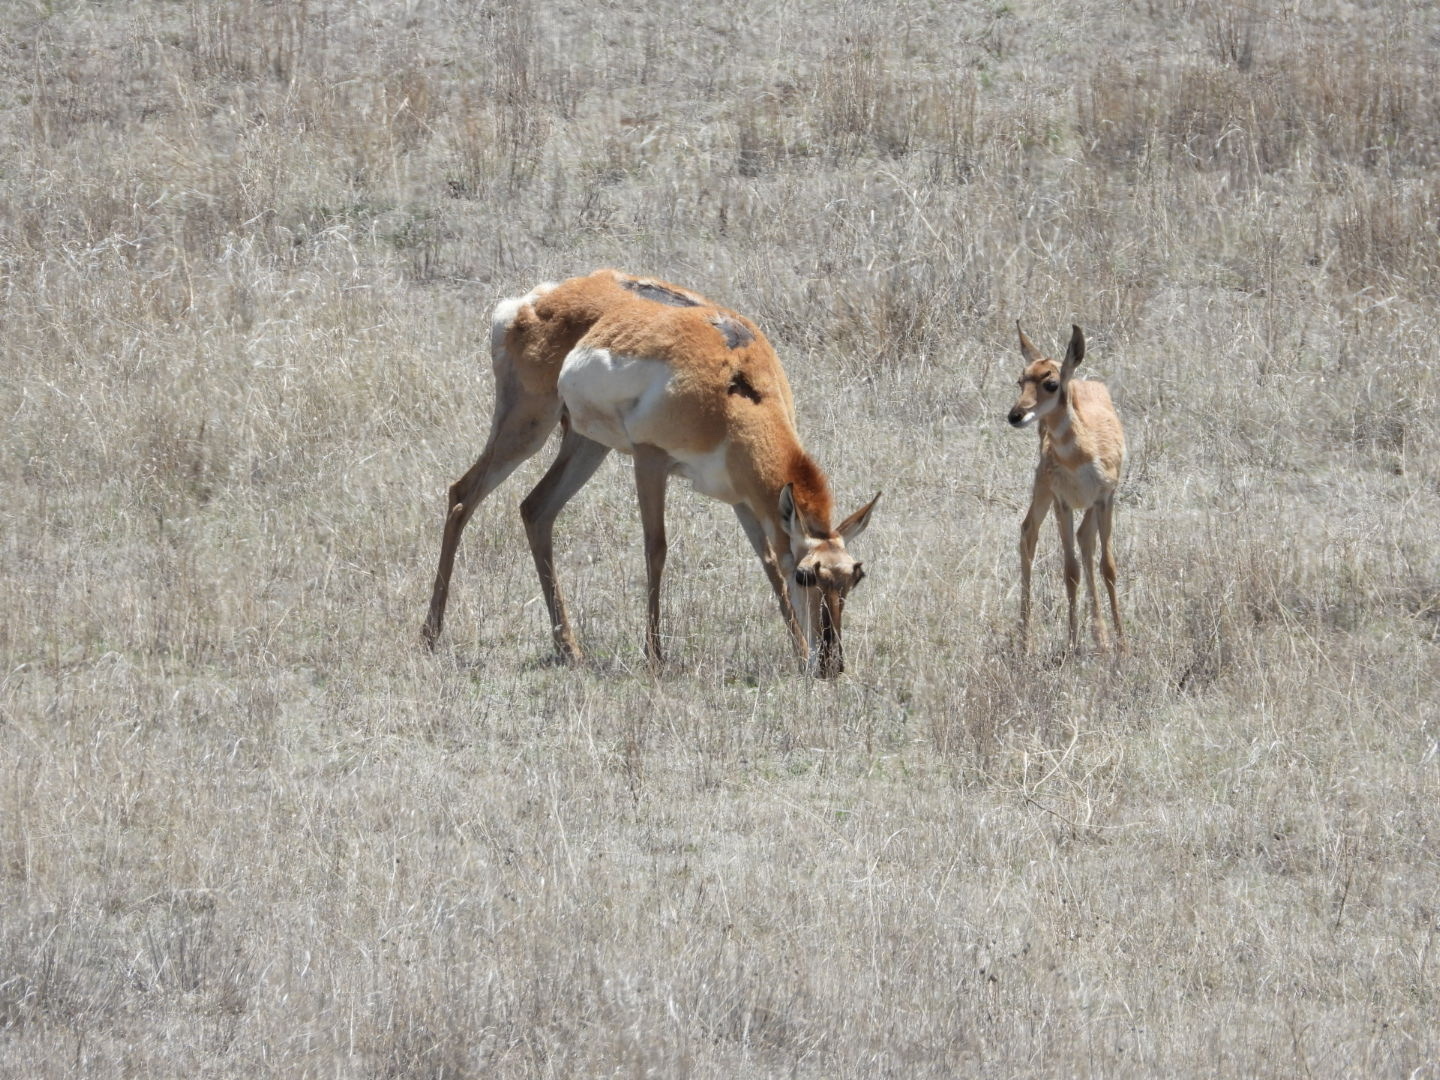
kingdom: Animalia
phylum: Chordata
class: Mammalia
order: Artiodactyla
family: Antilocapridae
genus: Antilocapra
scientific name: Antilocapra americana
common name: Pronghorn
